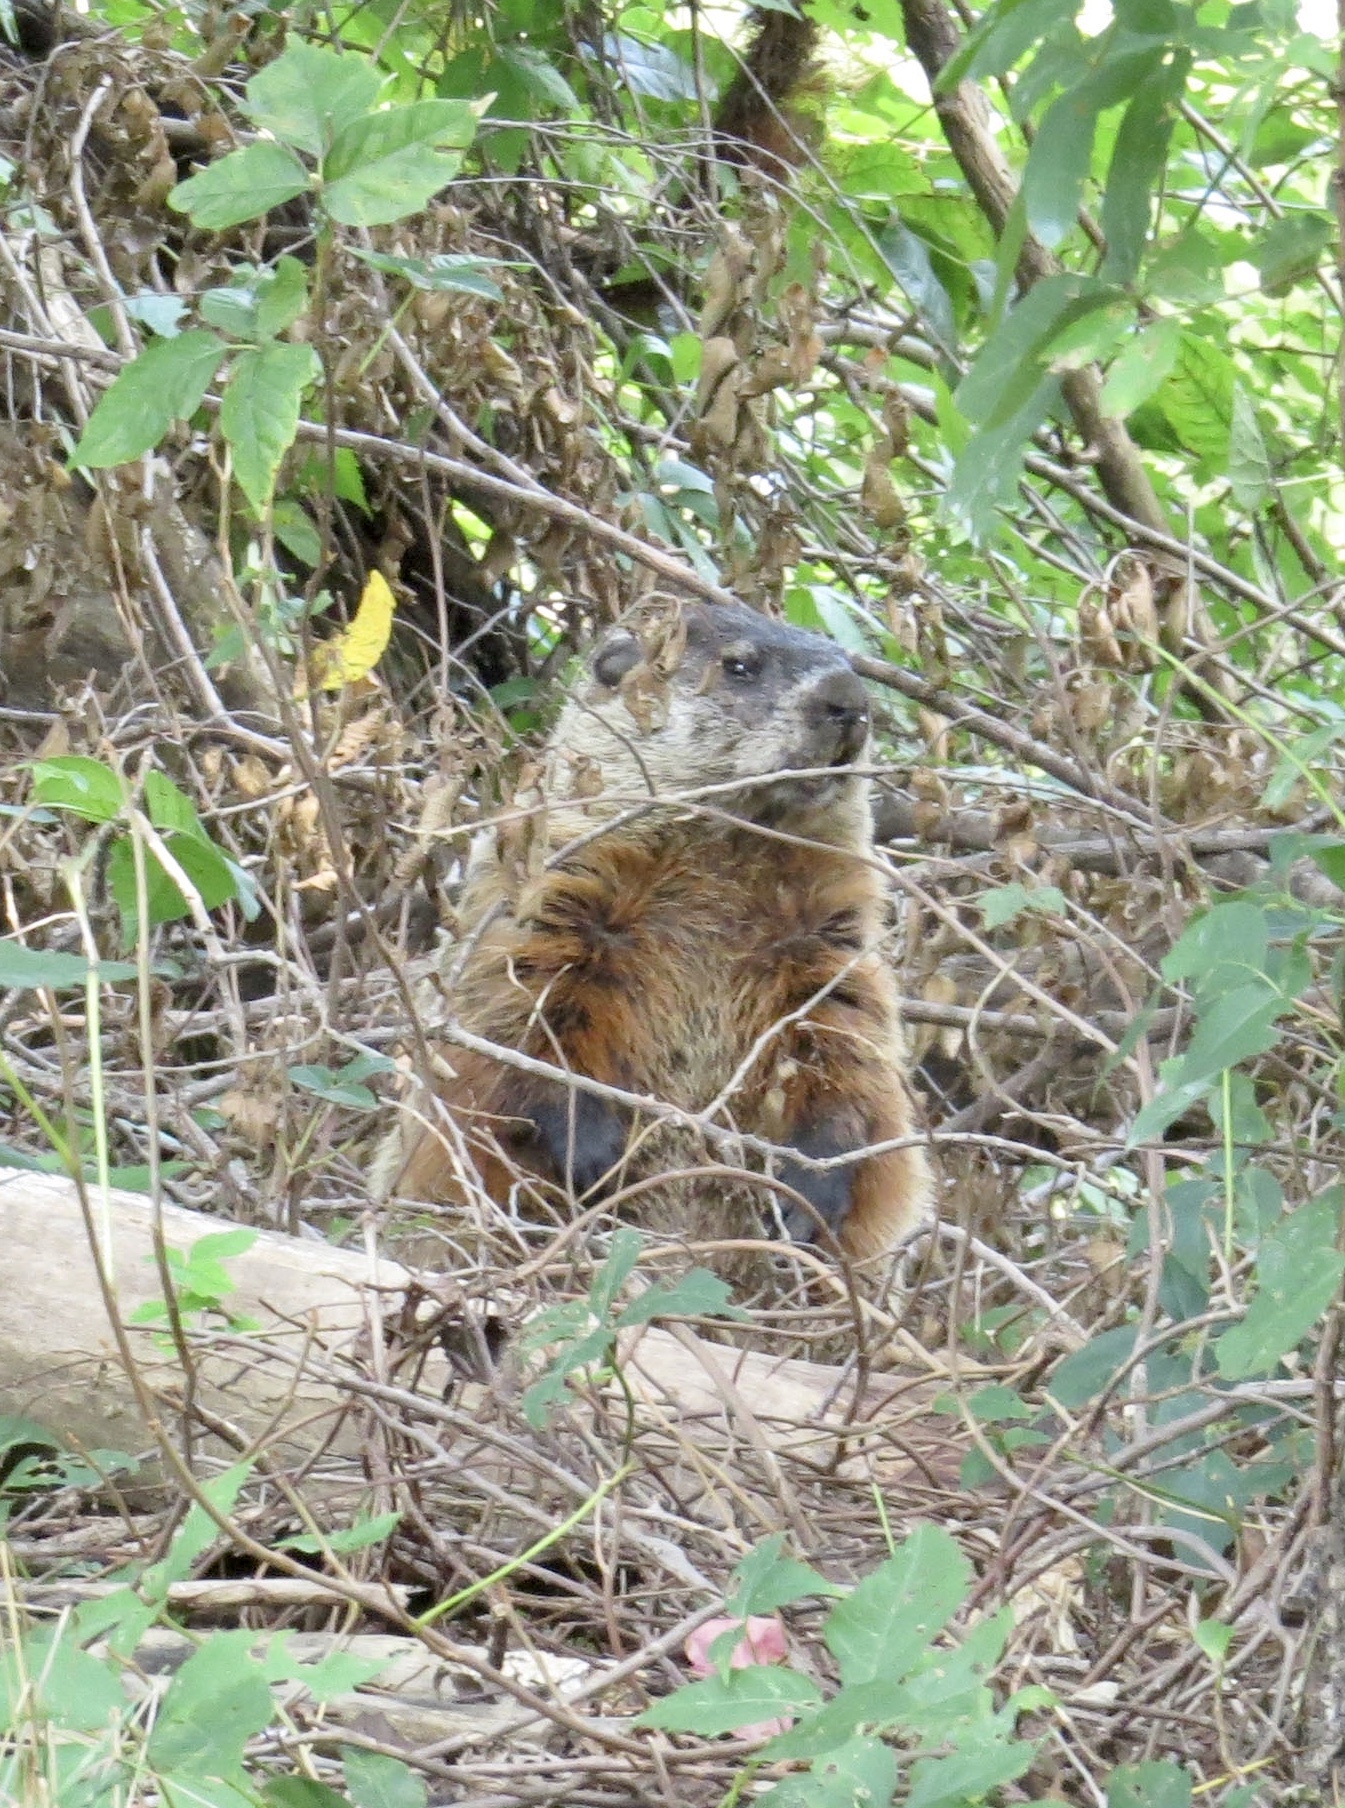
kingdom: Animalia
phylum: Chordata
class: Mammalia
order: Rodentia
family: Sciuridae
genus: Marmota
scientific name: Marmota monax
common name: Groundhog
